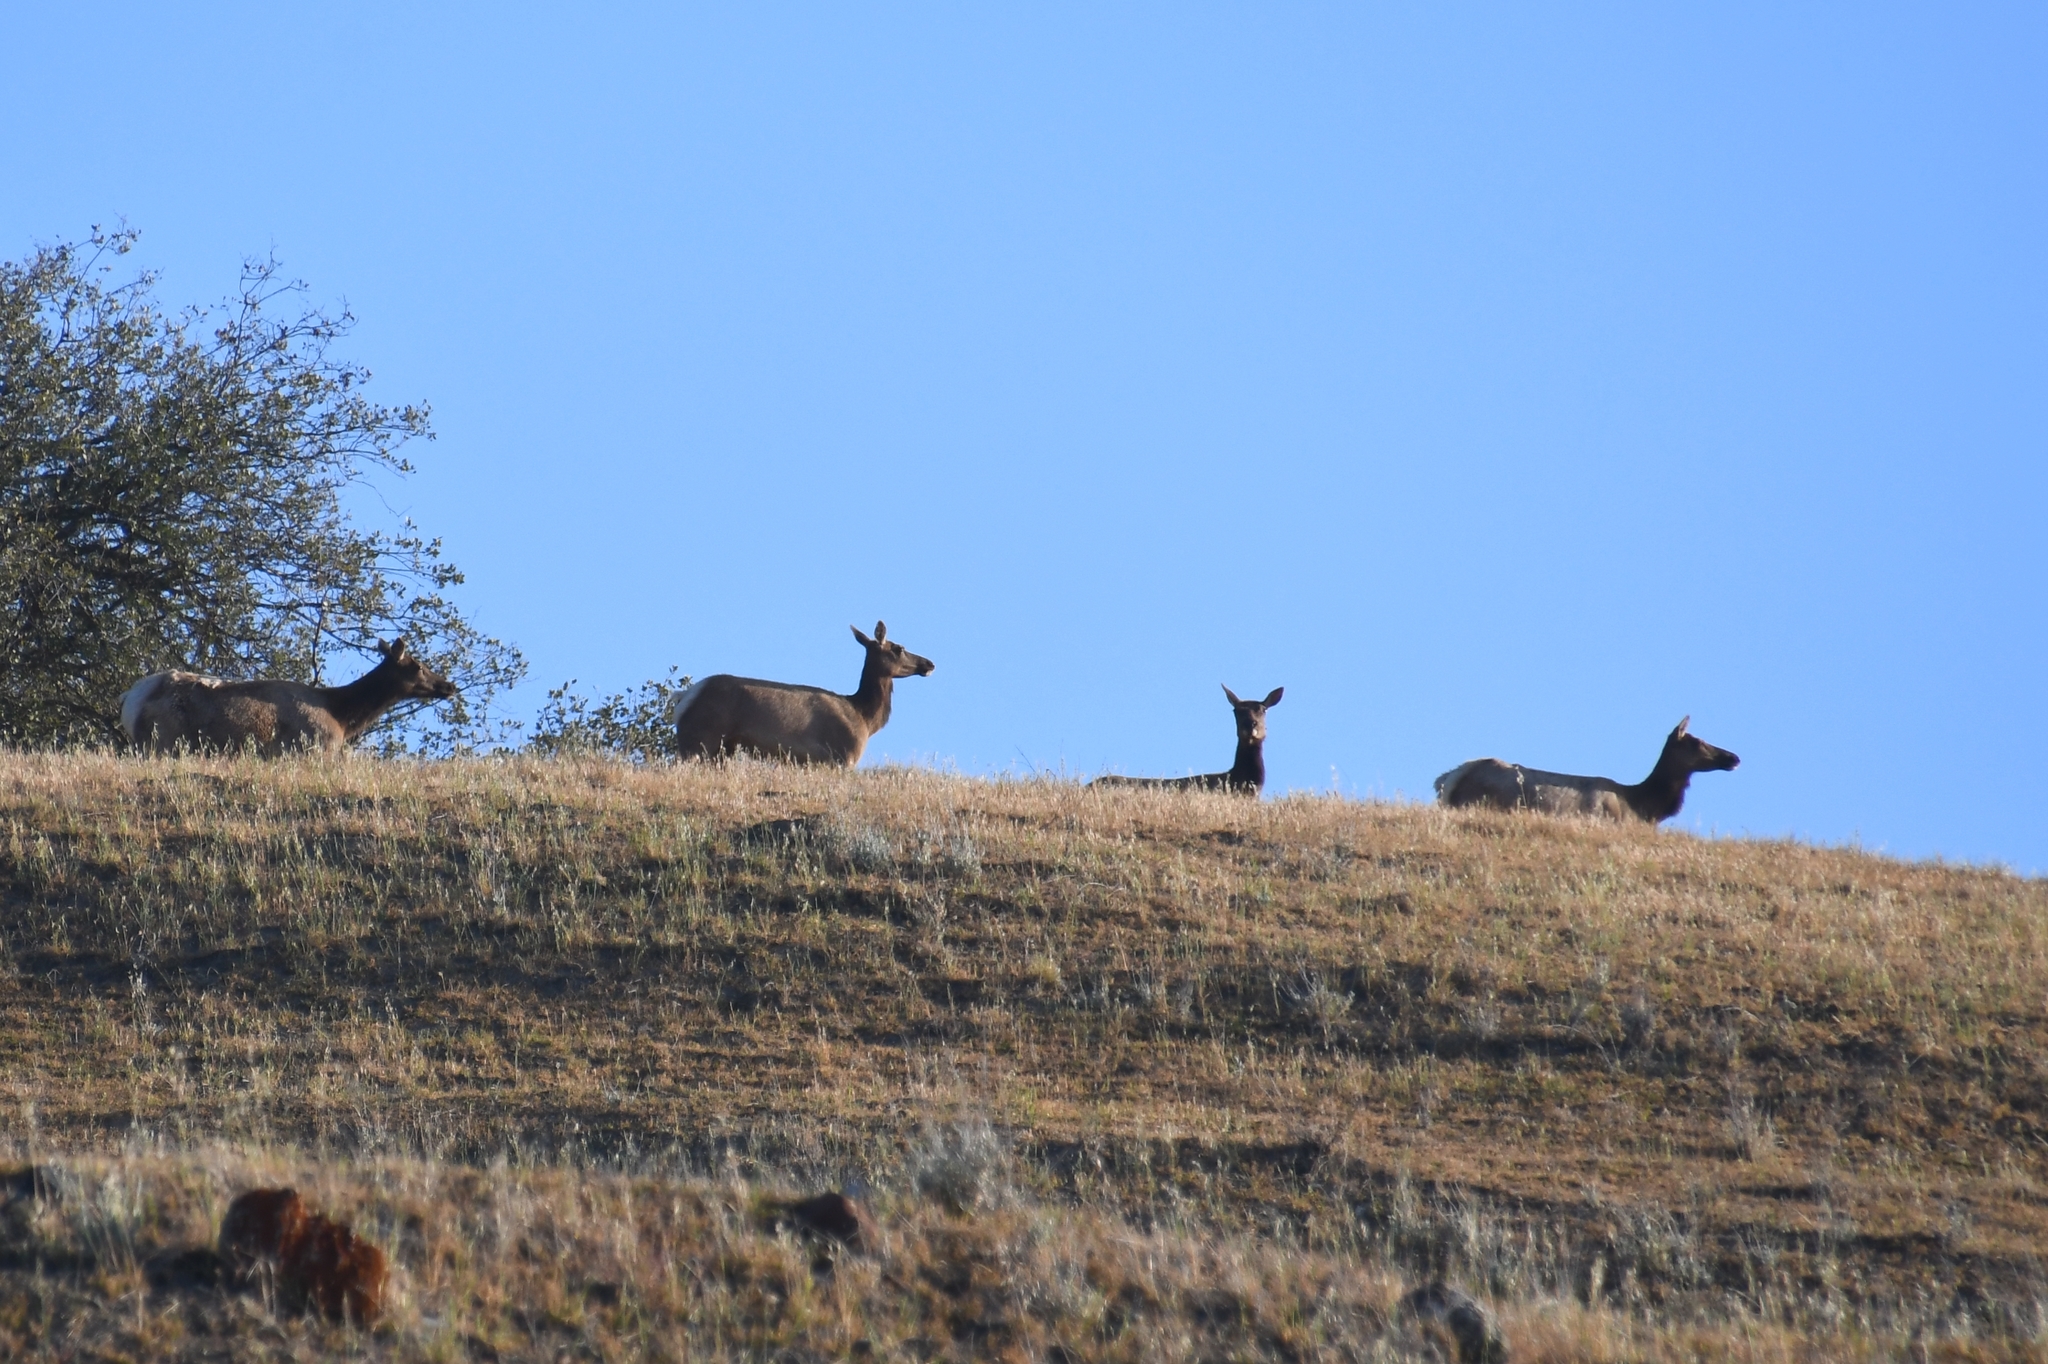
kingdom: Animalia
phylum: Chordata
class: Mammalia
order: Artiodactyla
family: Cervidae
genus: Cervus
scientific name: Cervus elaphus
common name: Red deer
